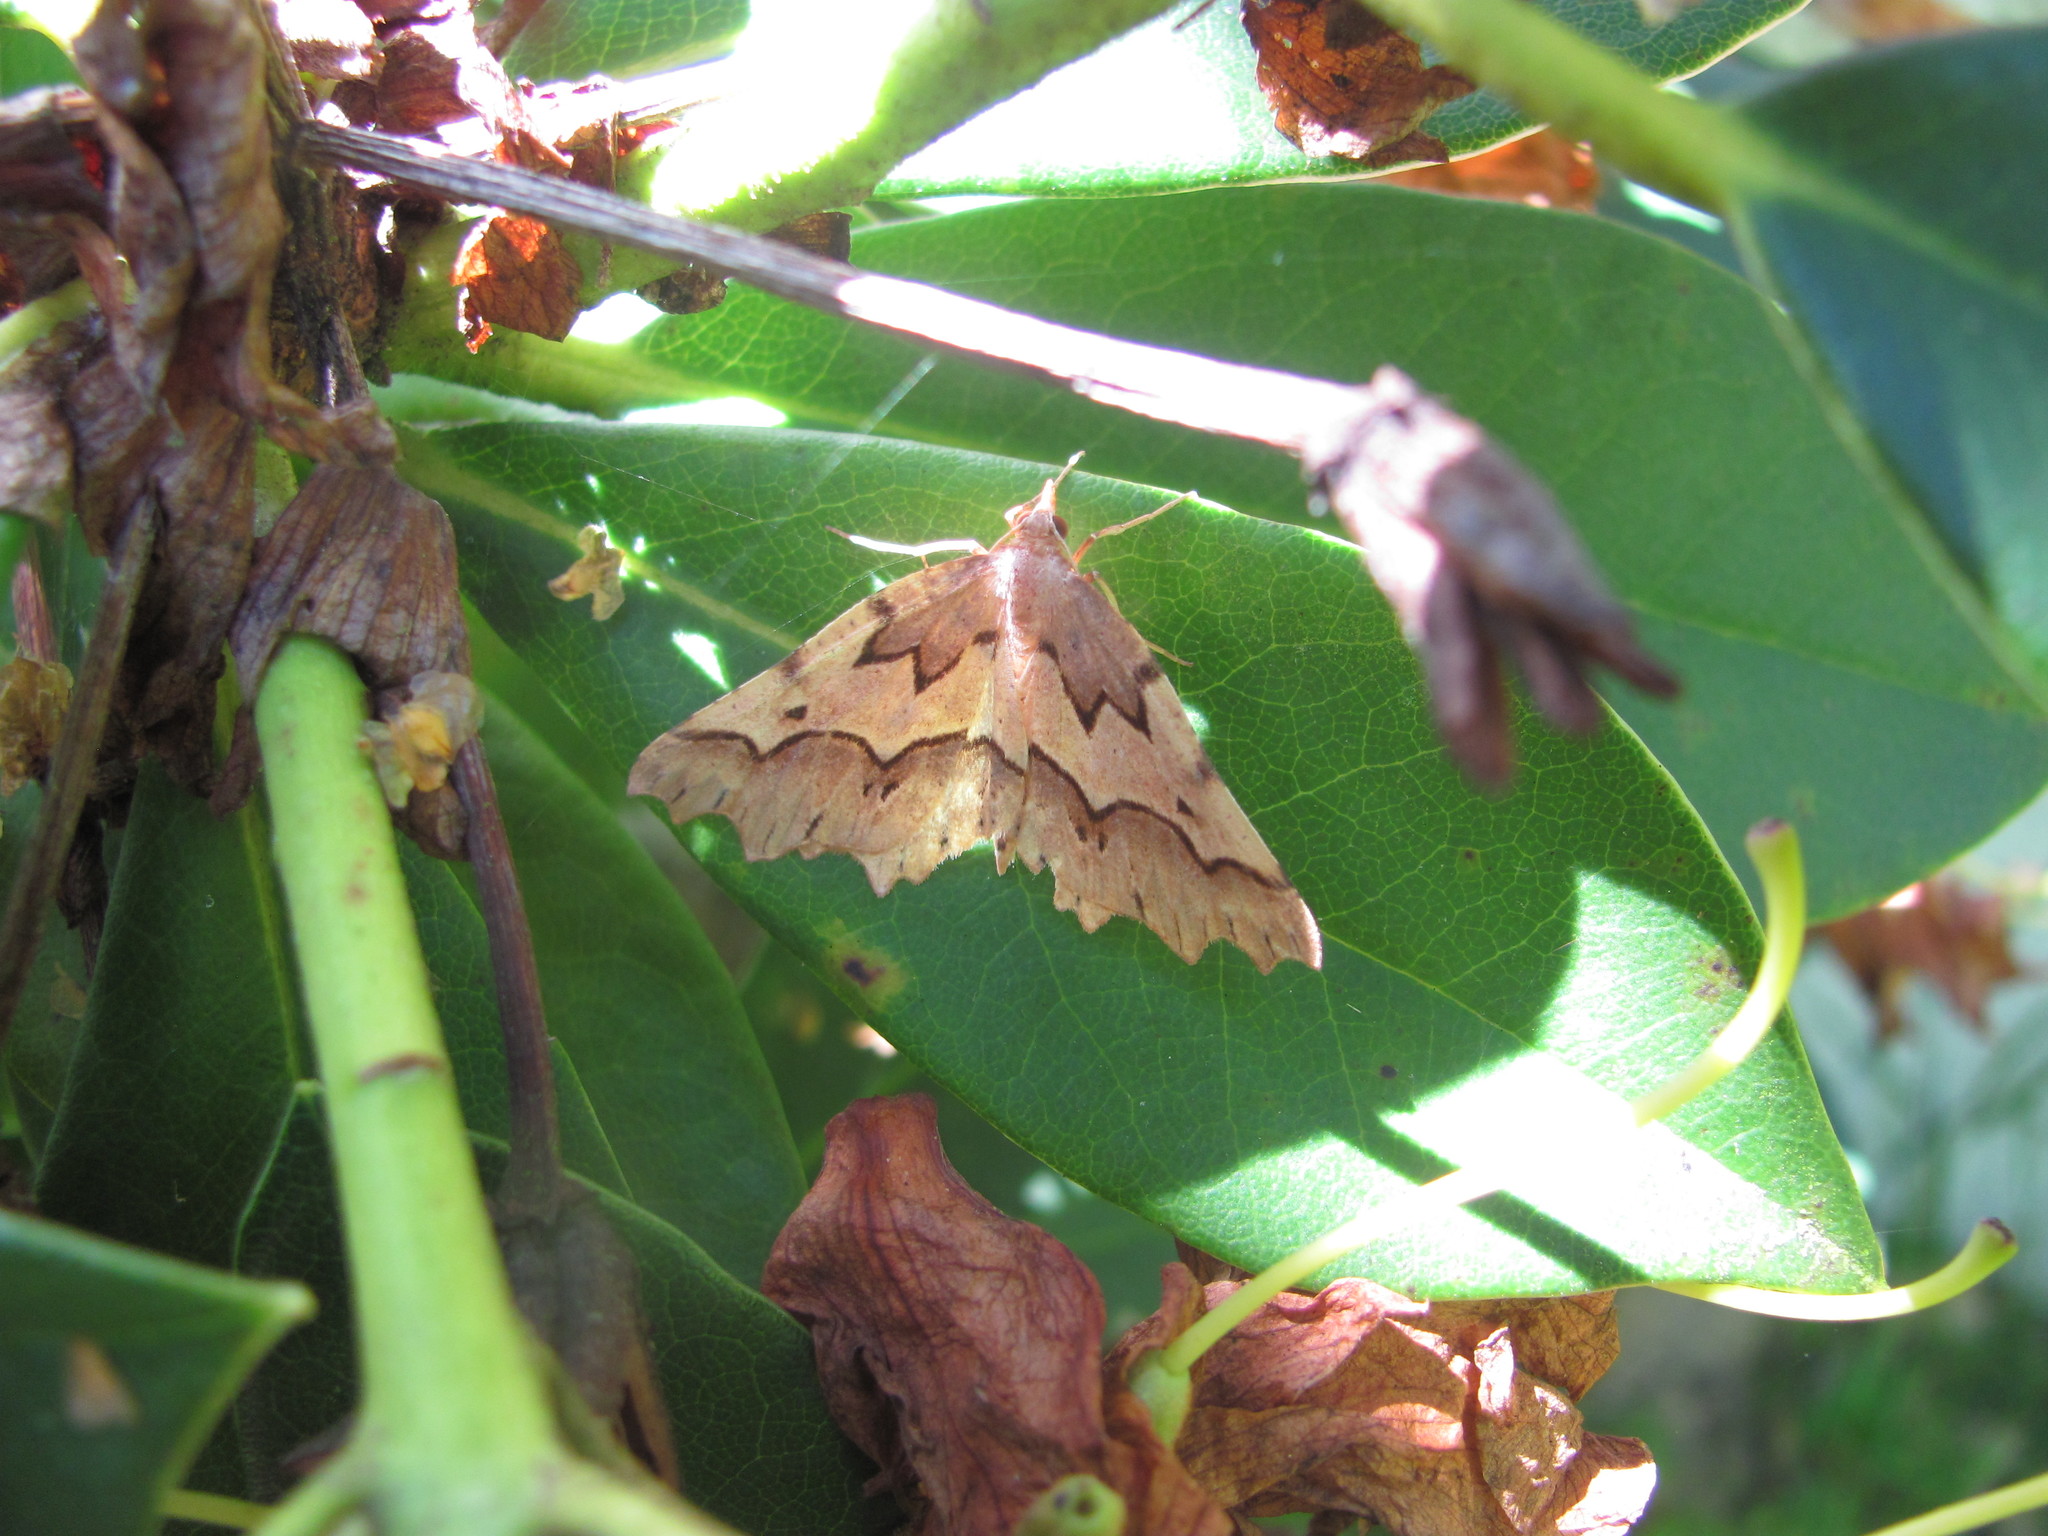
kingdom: Animalia
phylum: Arthropoda
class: Insecta
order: Lepidoptera
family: Geometridae
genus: Ischalis
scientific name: Ischalis fortinata
